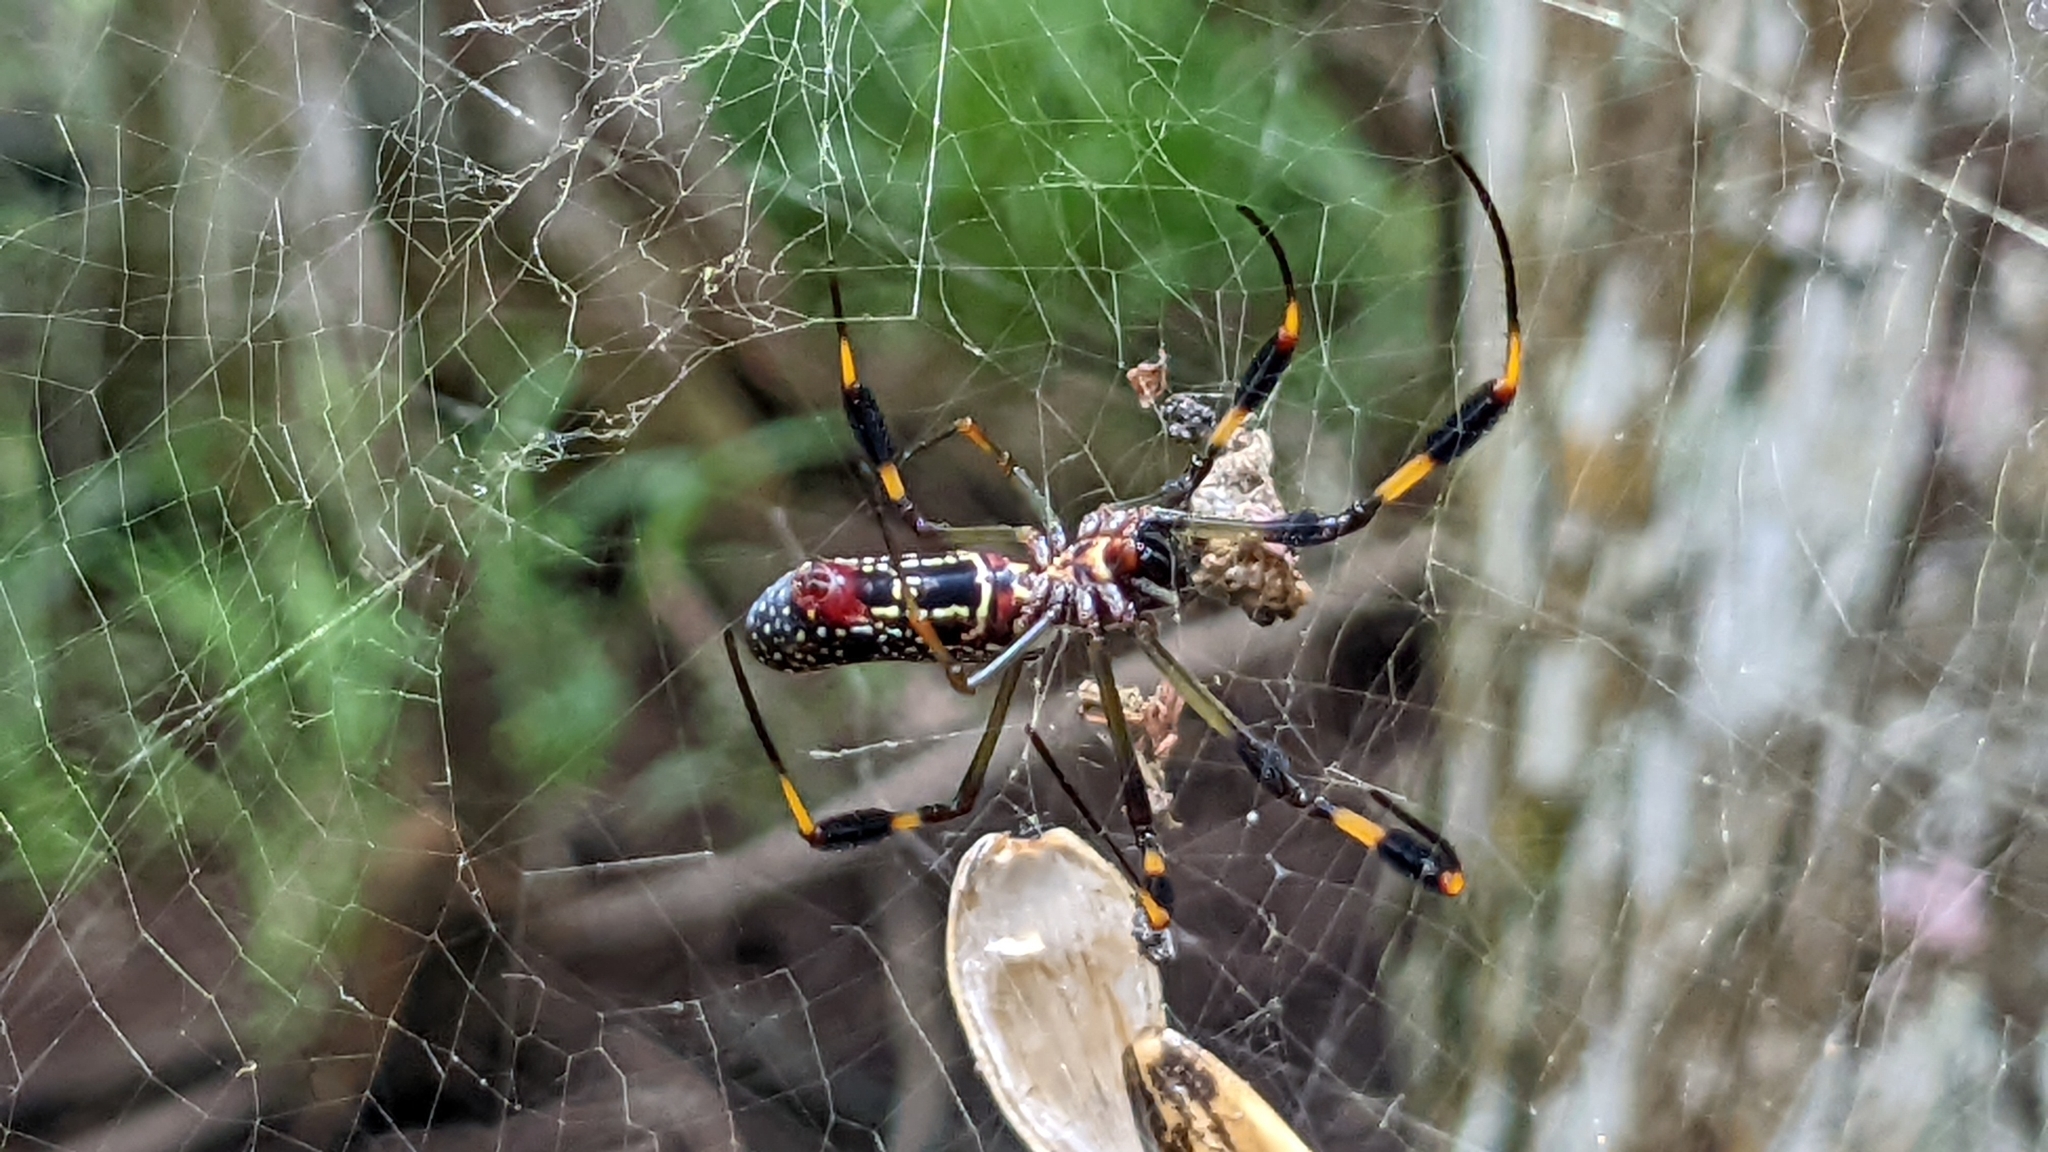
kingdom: Animalia
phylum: Arthropoda
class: Arachnida
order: Araneae
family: Araneidae
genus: Trichonephila
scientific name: Trichonephila clavipes
